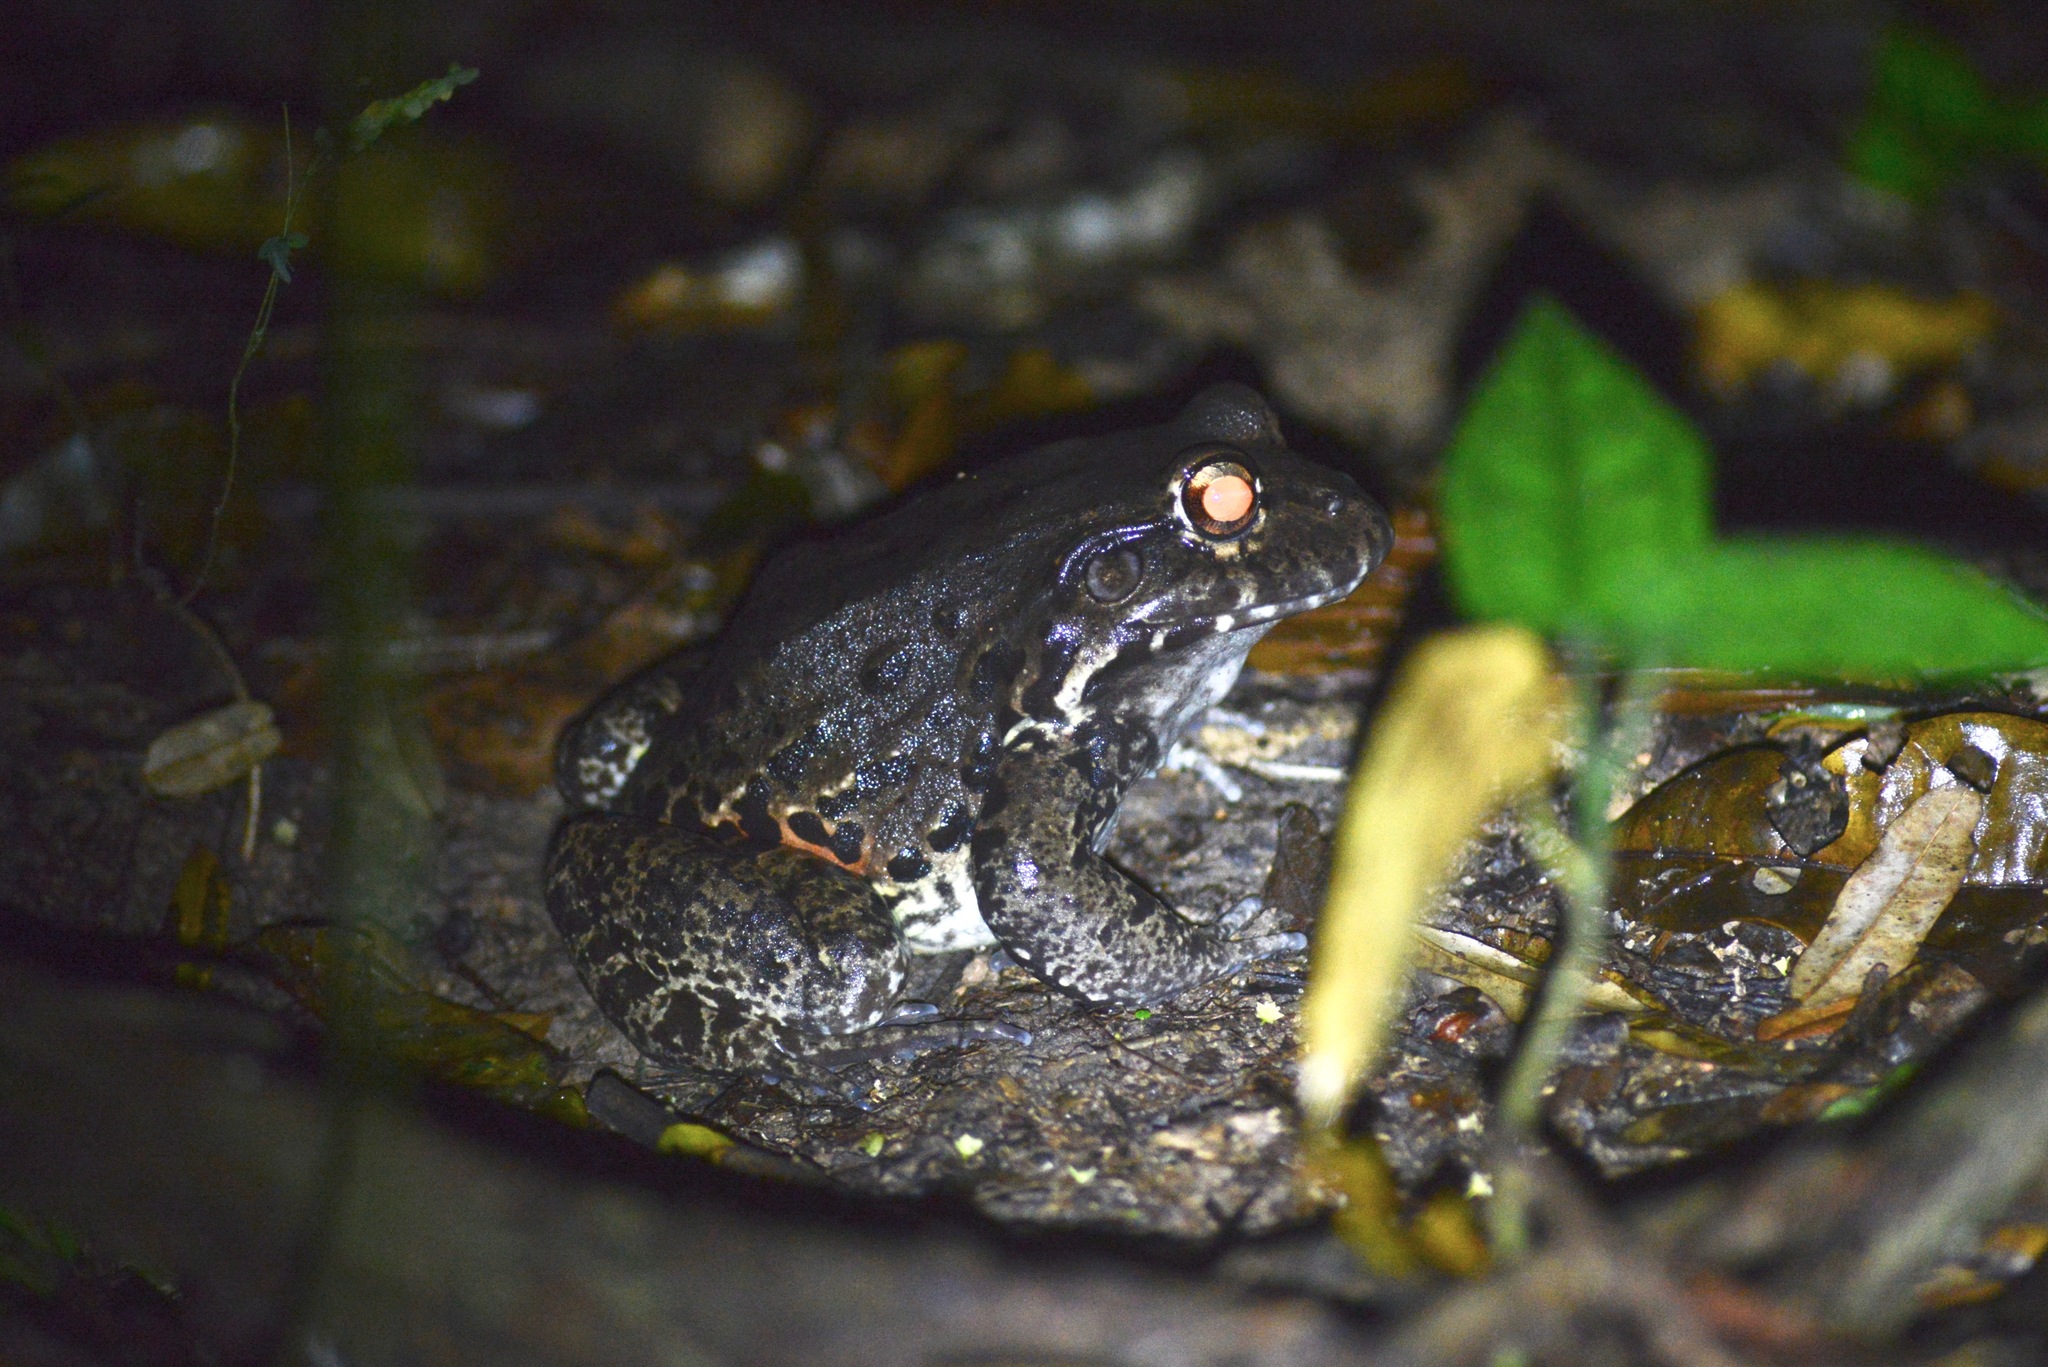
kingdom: Animalia
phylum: Chordata
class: Amphibia
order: Anura
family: Leptodactylidae
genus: Leptodactylus
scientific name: Leptodactylus vastus
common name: Northeastern pepper frog
